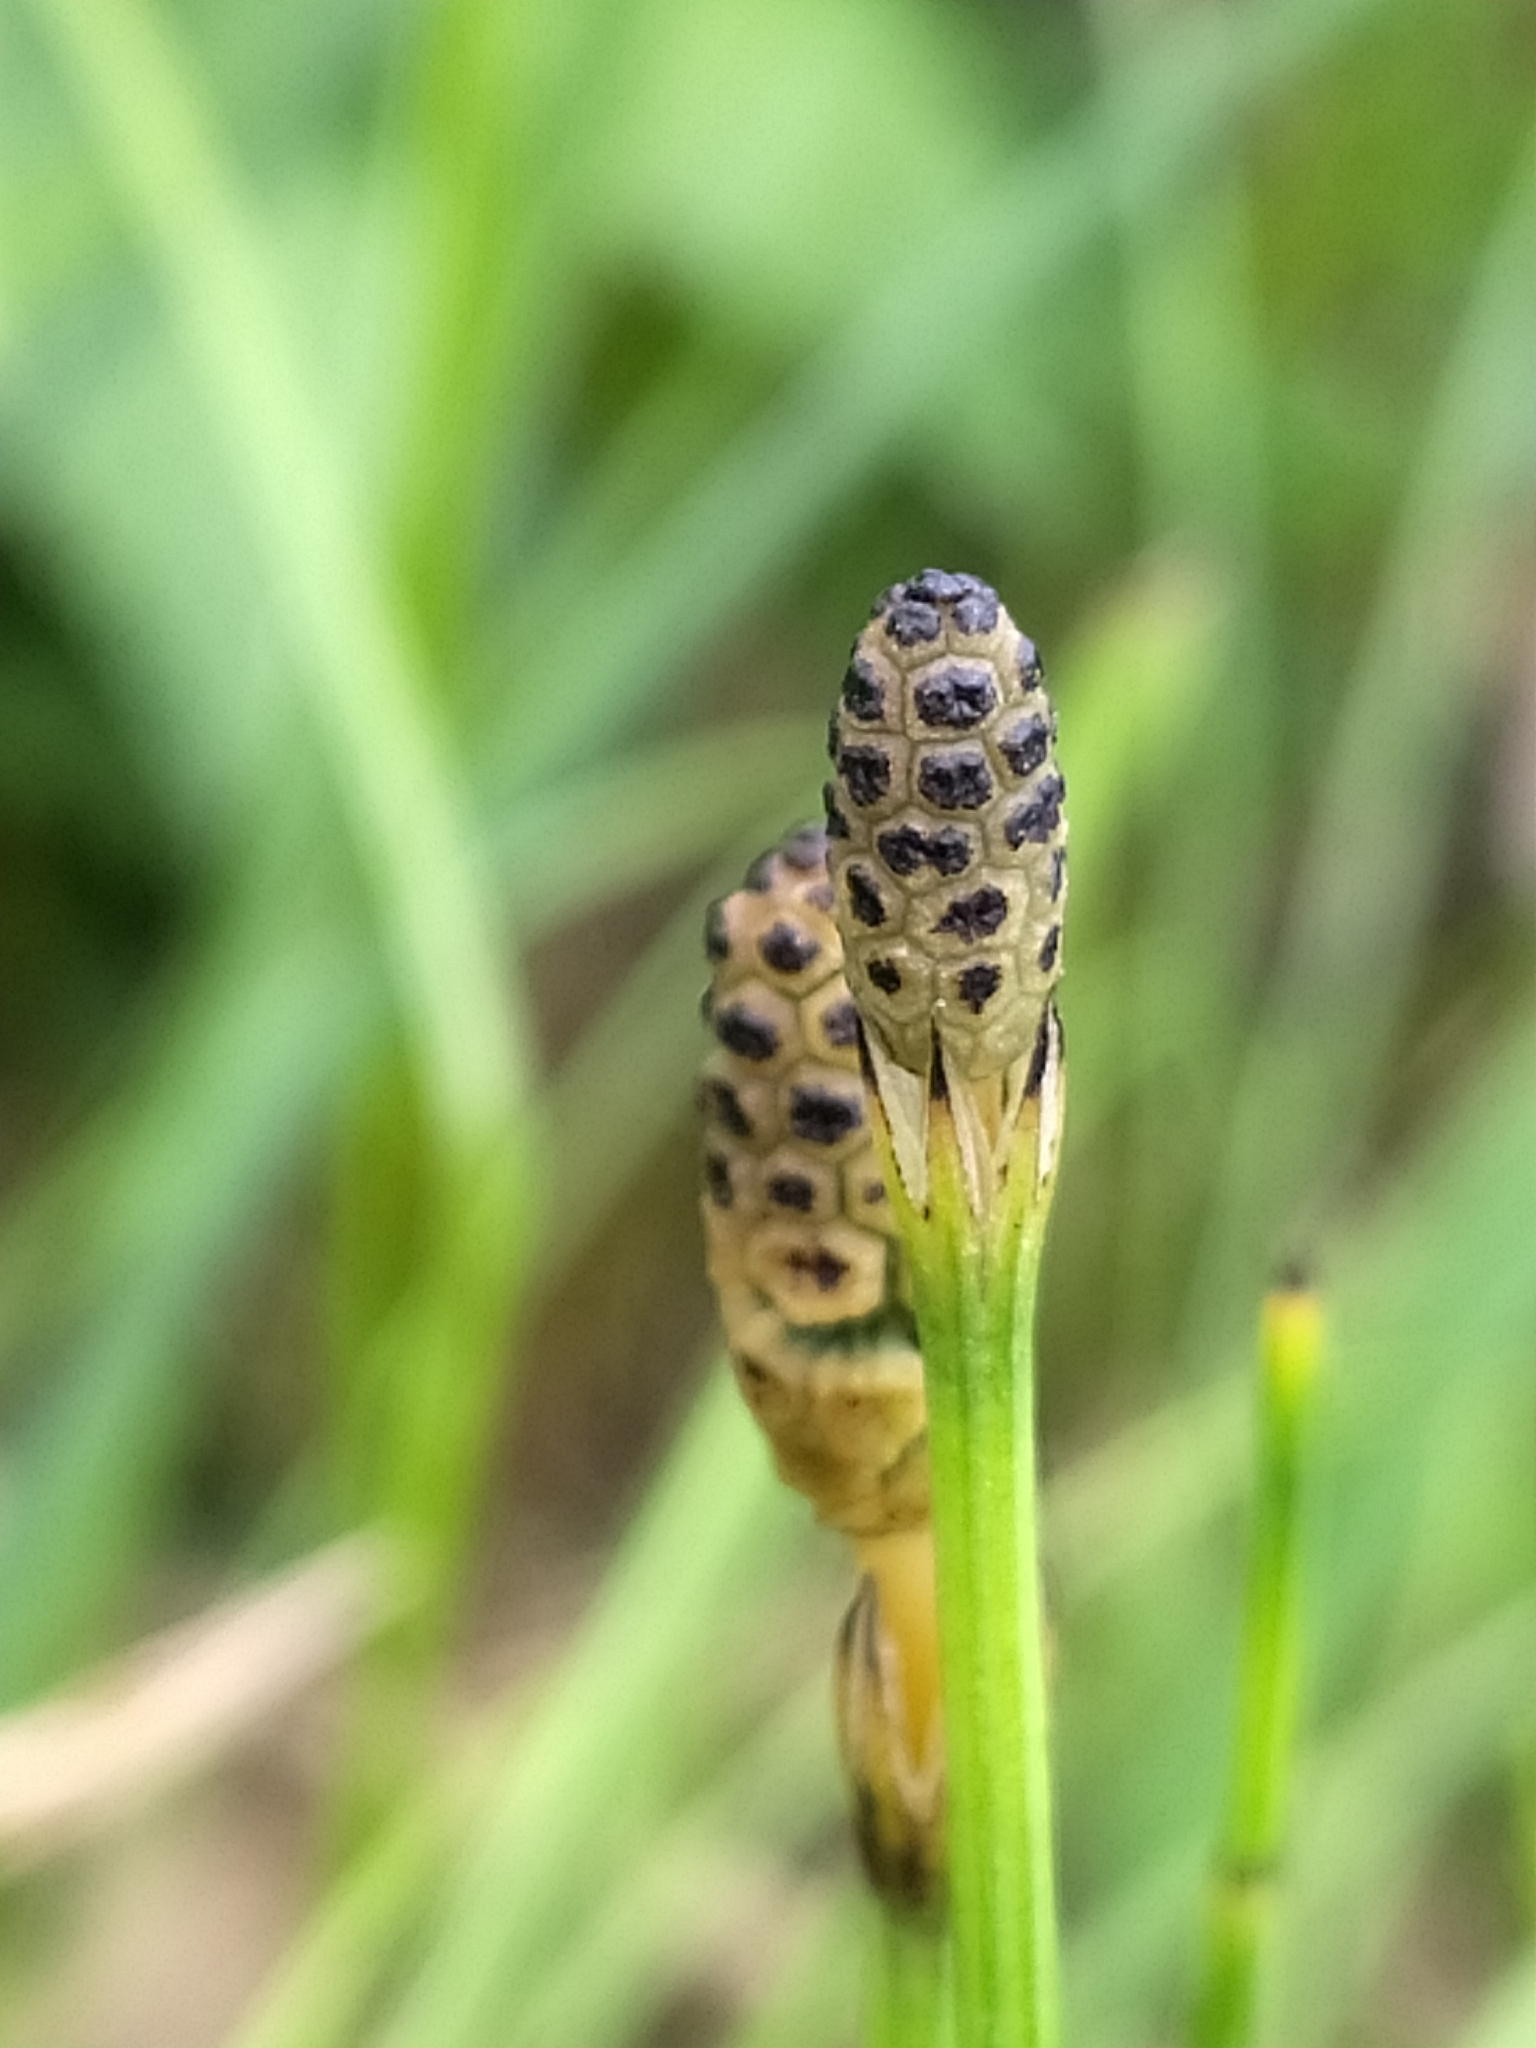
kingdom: Plantae
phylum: Tracheophyta
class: Polypodiopsida
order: Equisetales
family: Equisetaceae
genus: Equisetum
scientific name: Equisetum palustre
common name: Marsh horsetail
